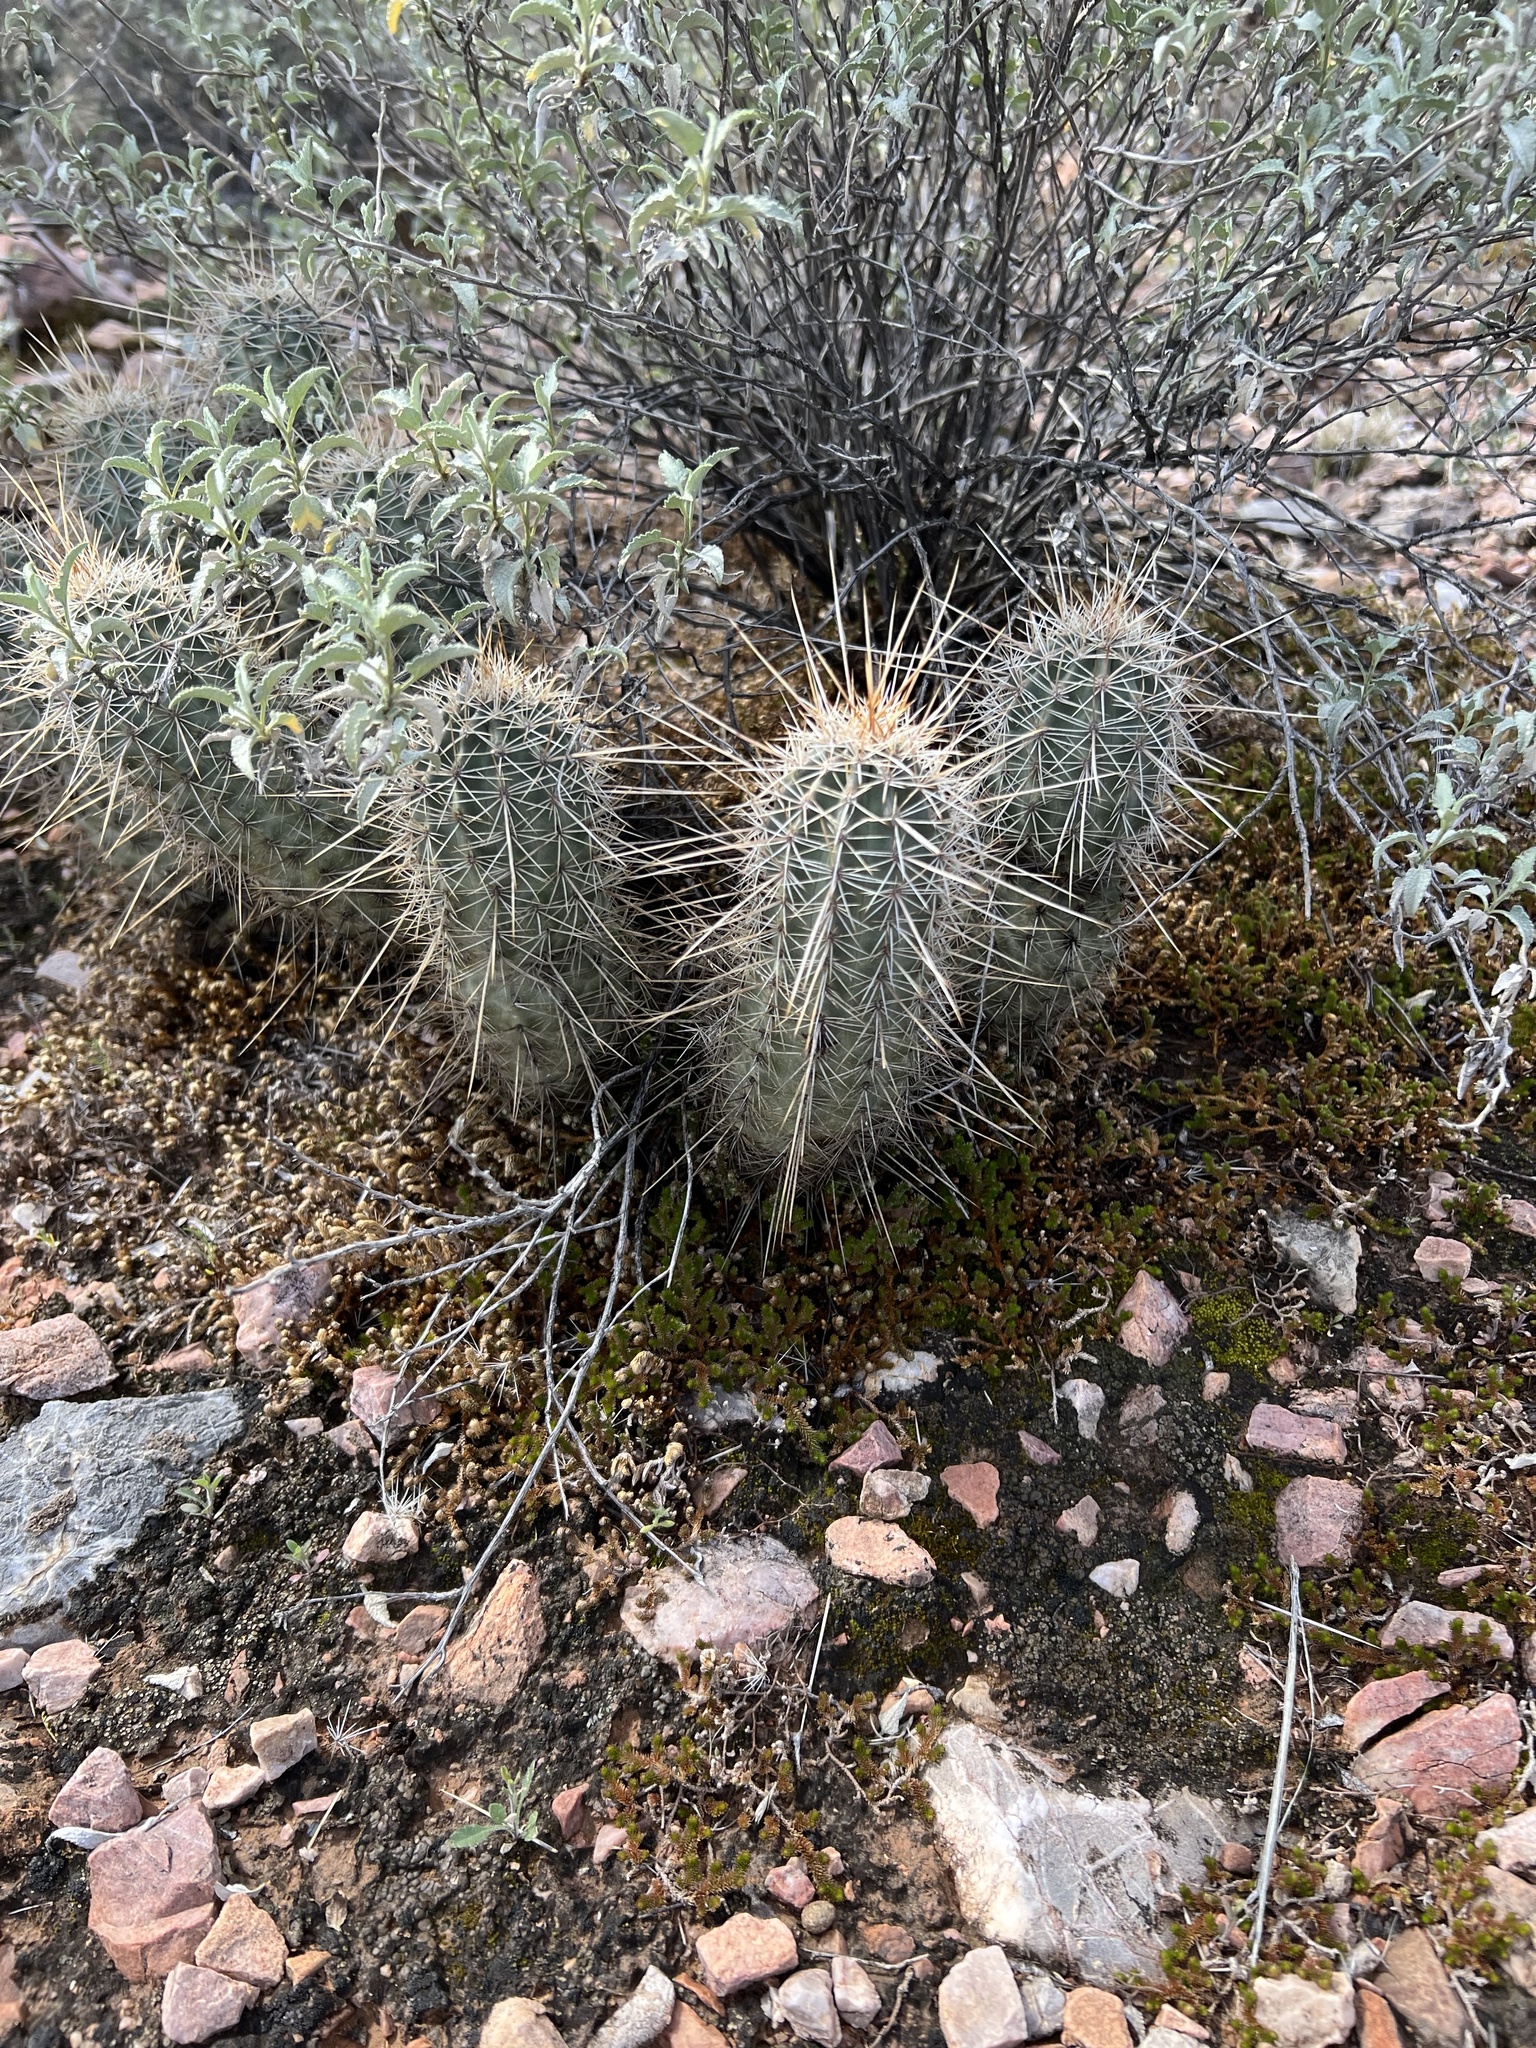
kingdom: Plantae
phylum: Tracheophyta
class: Magnoliopsida
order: Caryophyllales
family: Cactaceae
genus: Echinocereus
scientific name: Echinocereus fasciculatus
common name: Bundle hedgehog
